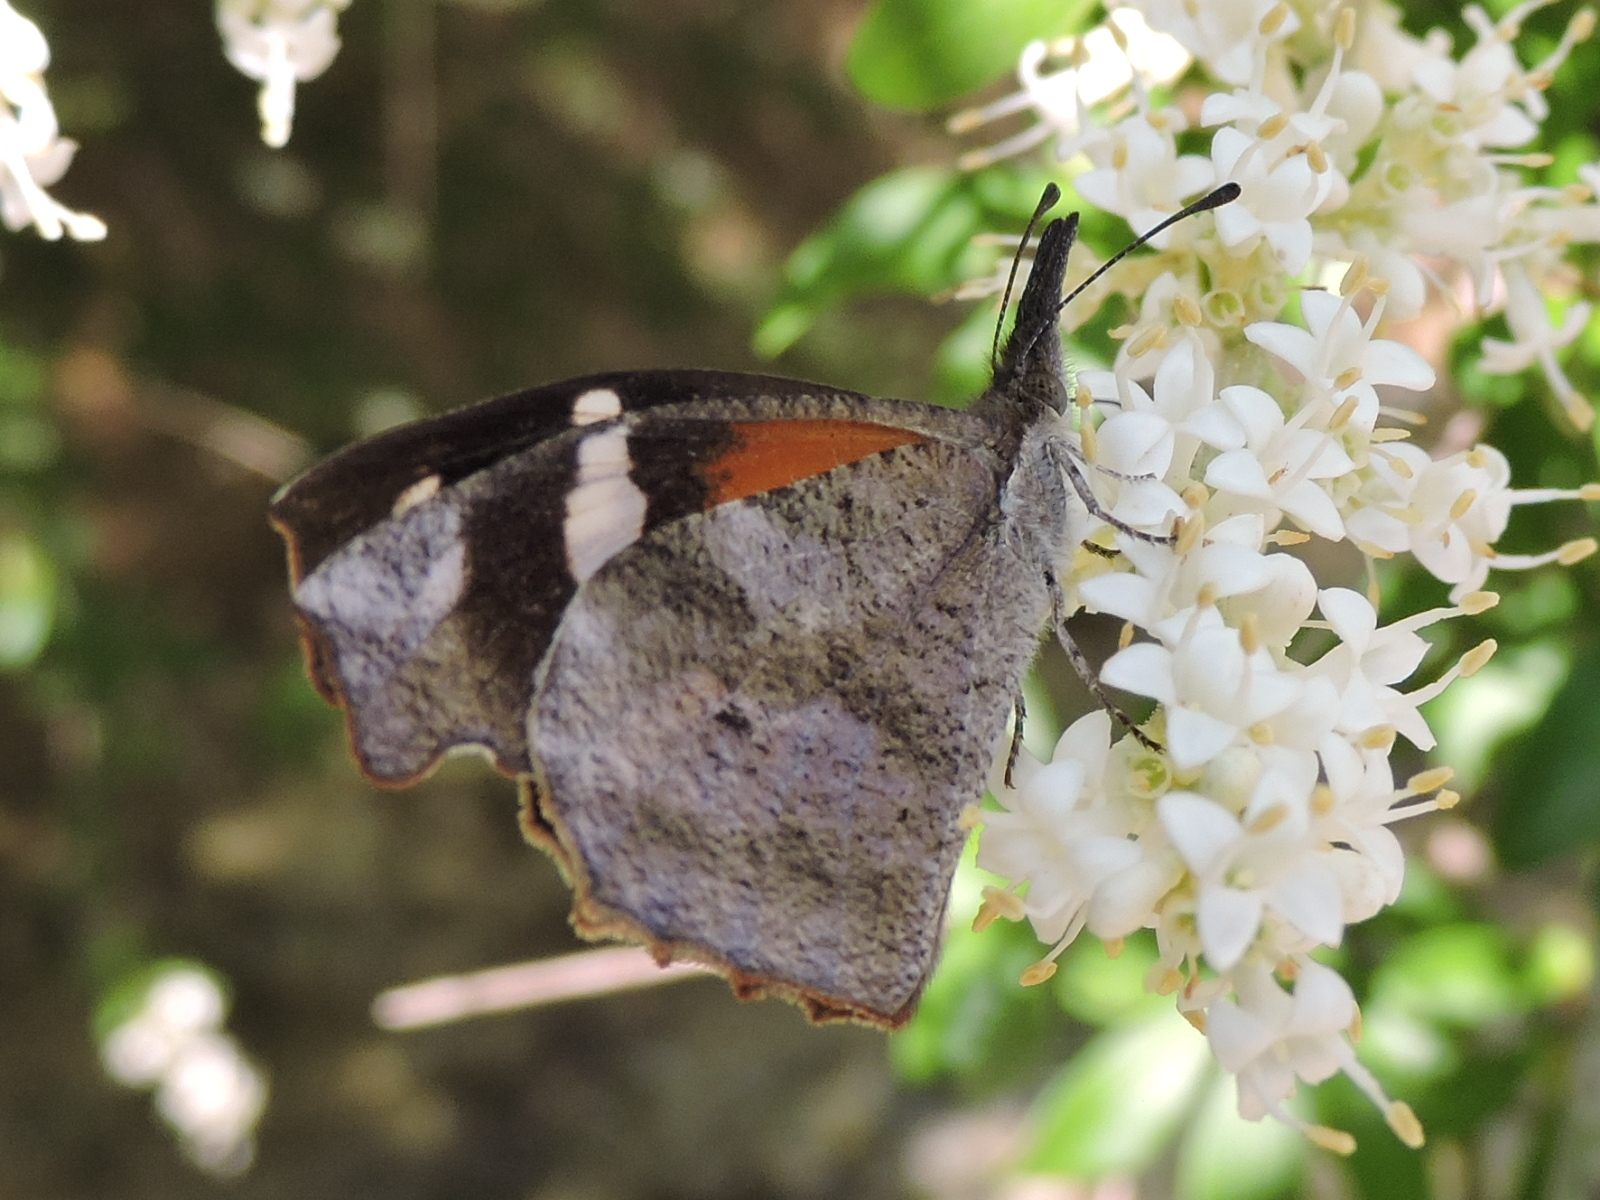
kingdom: Animalia
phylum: Arthropoda
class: Insecta
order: Lepidoptera
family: Nymphalidae
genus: Libytheana
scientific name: Libytheana carinenta
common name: American snout
